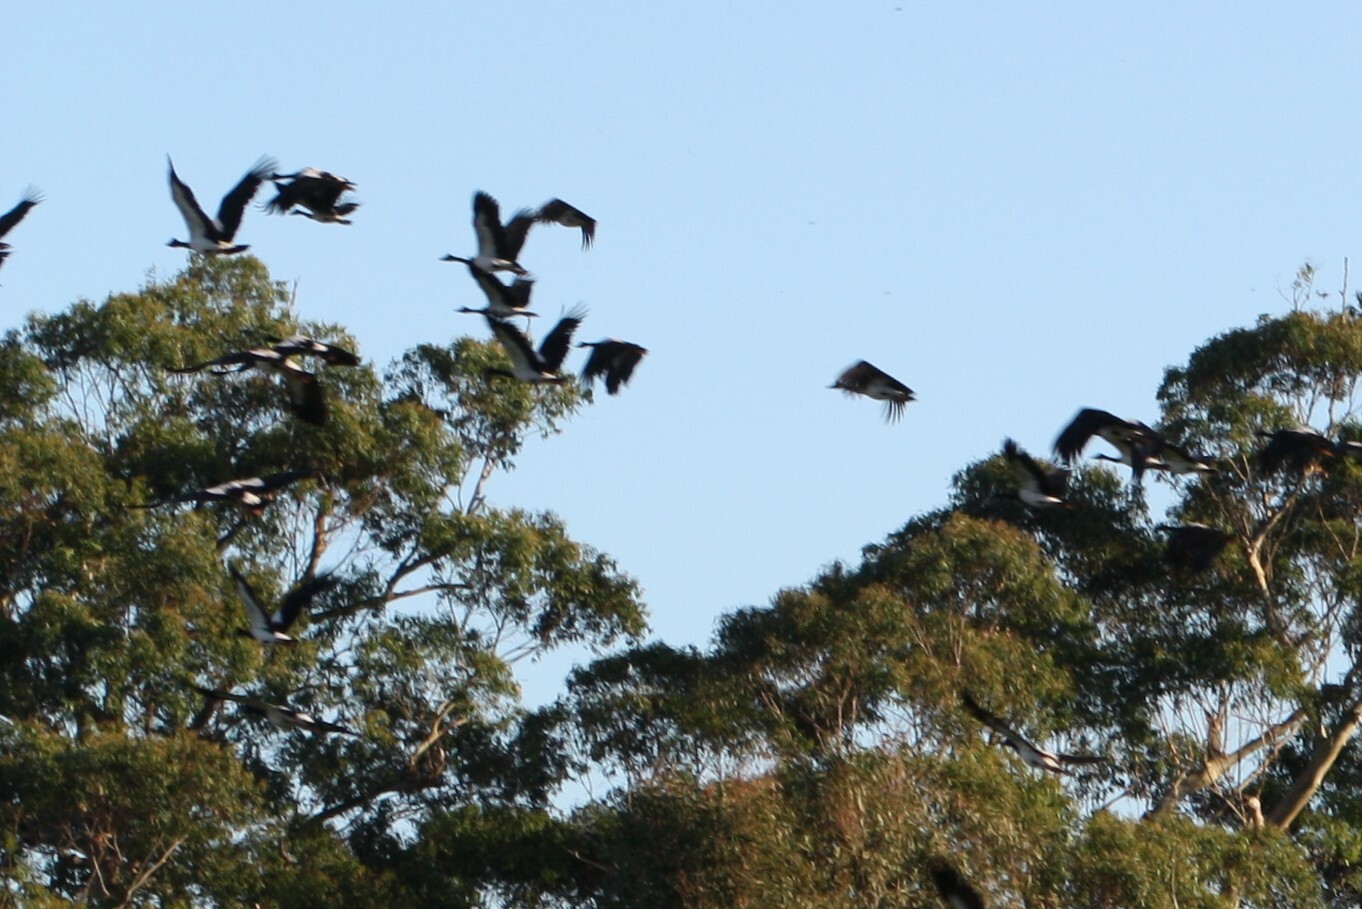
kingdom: Animalia
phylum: Chordata
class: Aves
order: Anseriformes
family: Anseranatidae
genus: Anseranas
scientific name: Anseranas semipalmata
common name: Magpie goose
